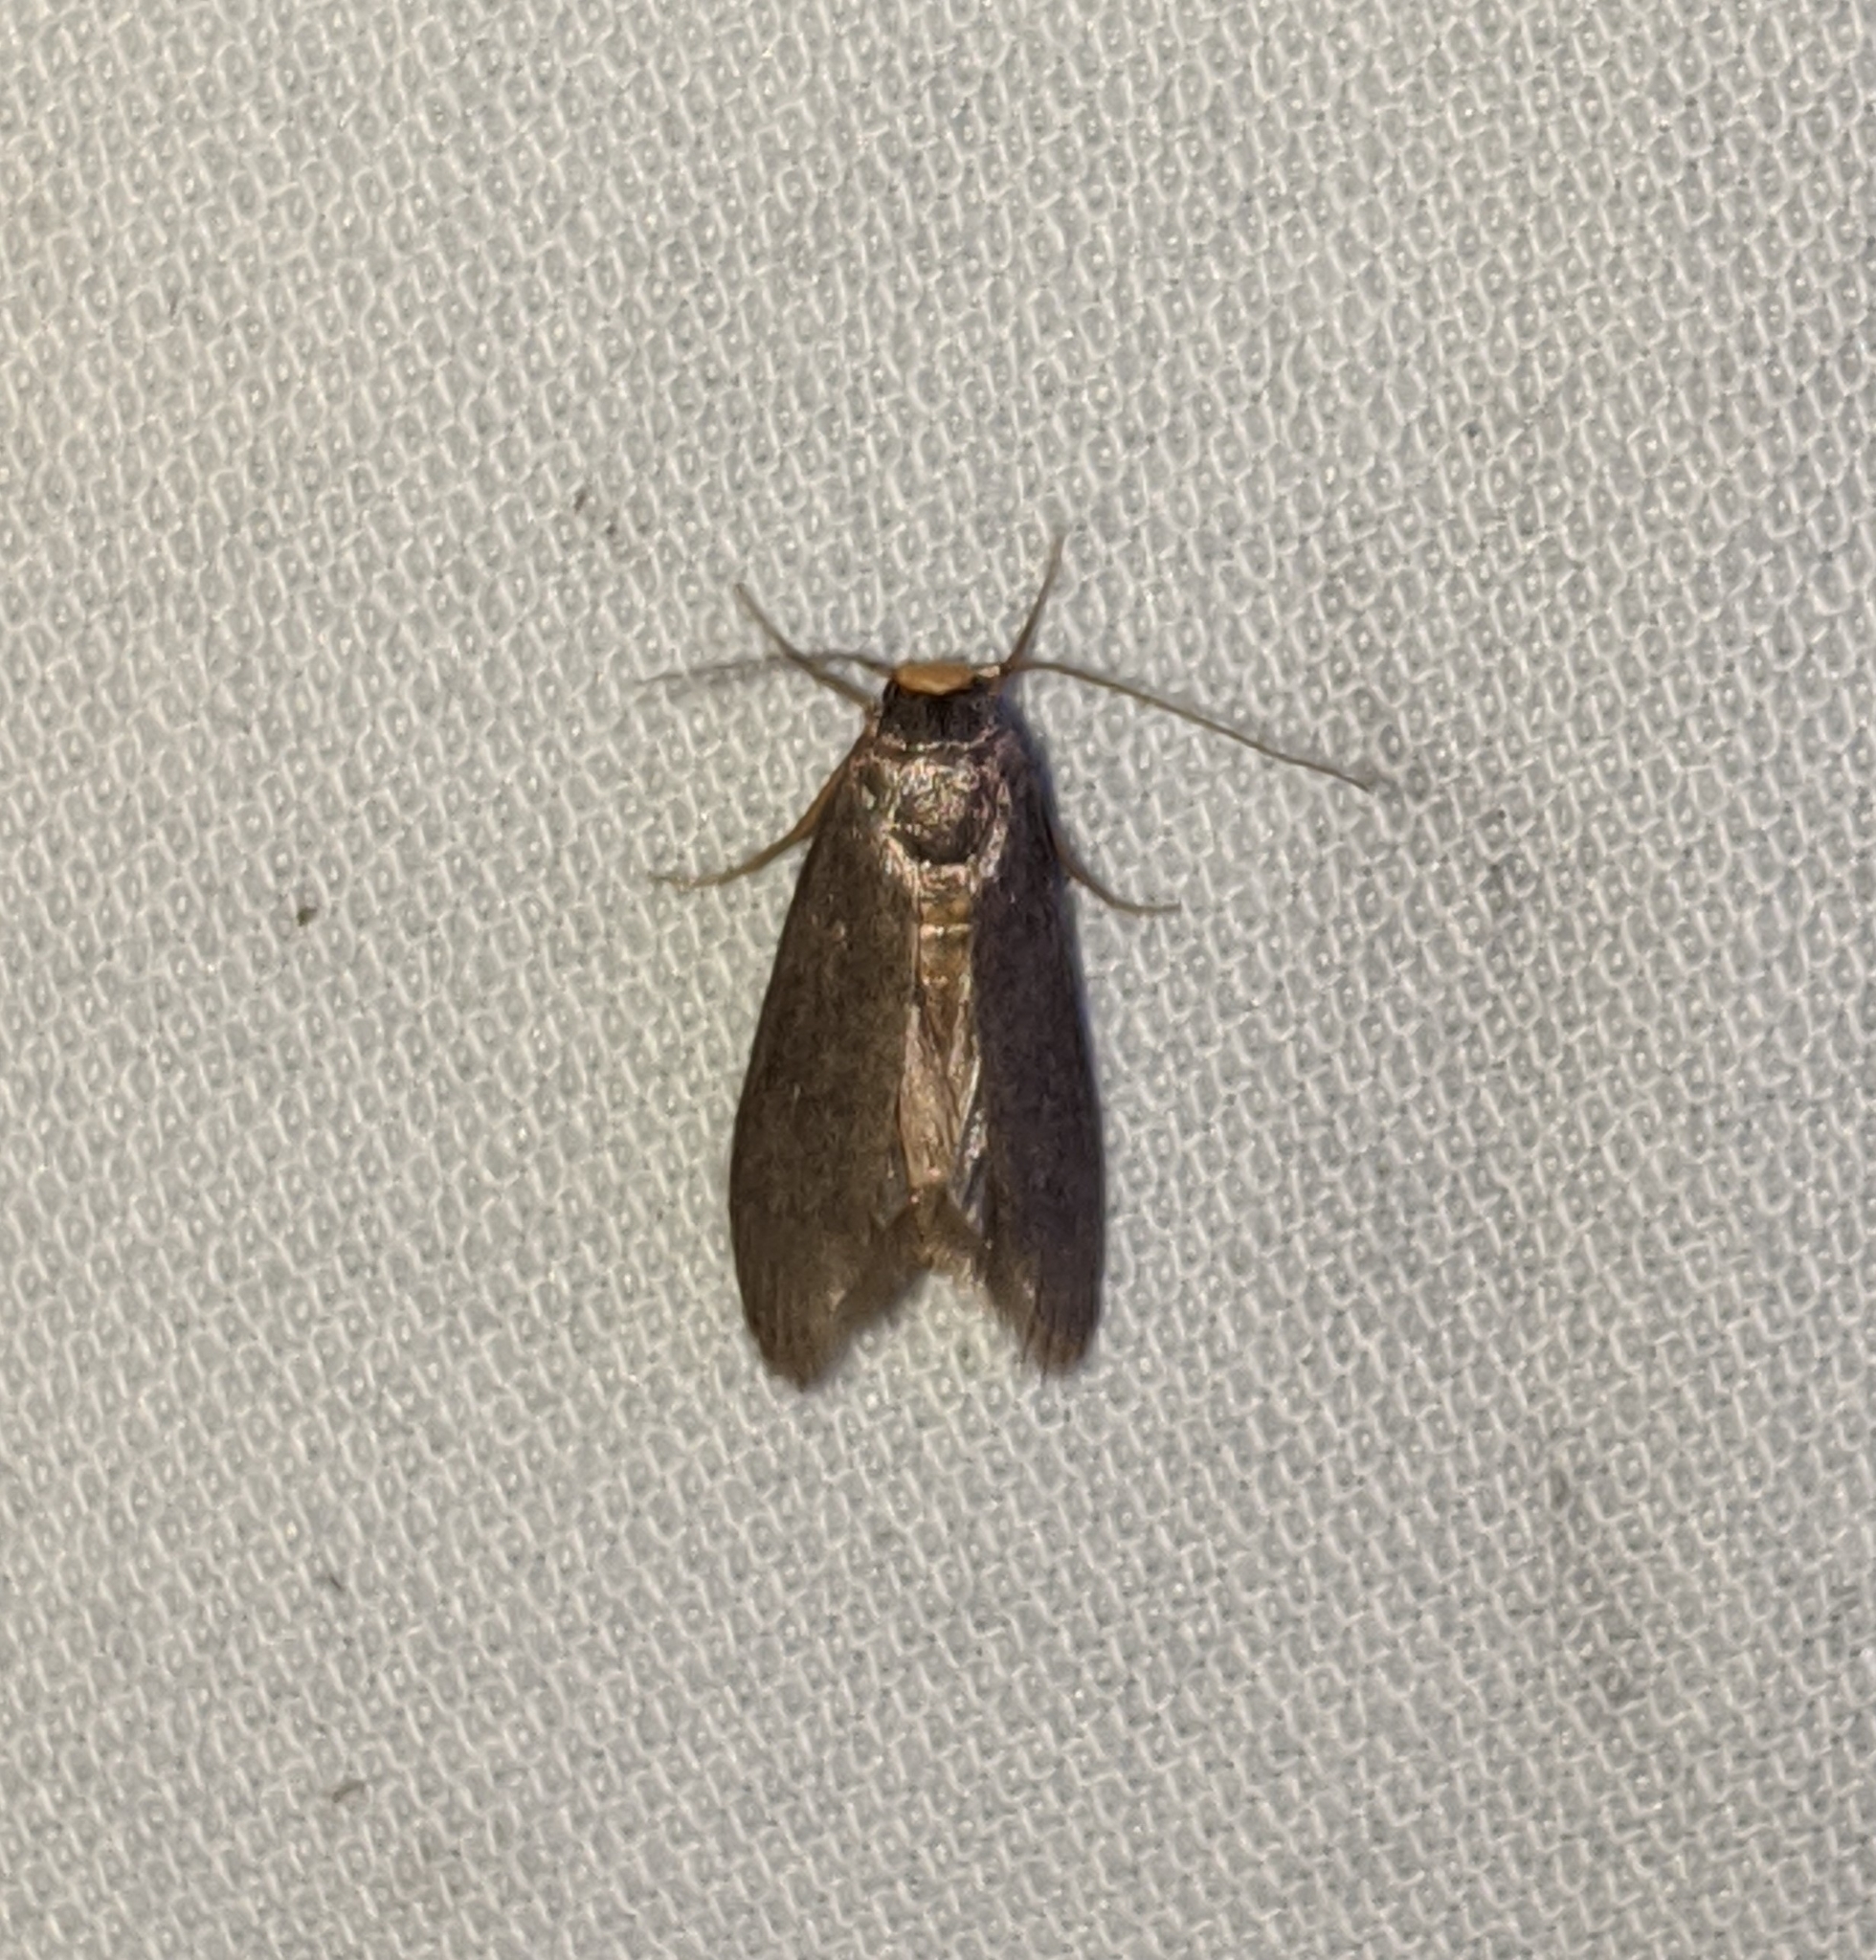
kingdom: Animalia
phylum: Arthropoda
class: Insecta
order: Lepidoptera
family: Pyralidae
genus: Achroia
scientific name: Achroia grisella
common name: Lesser wax moth
